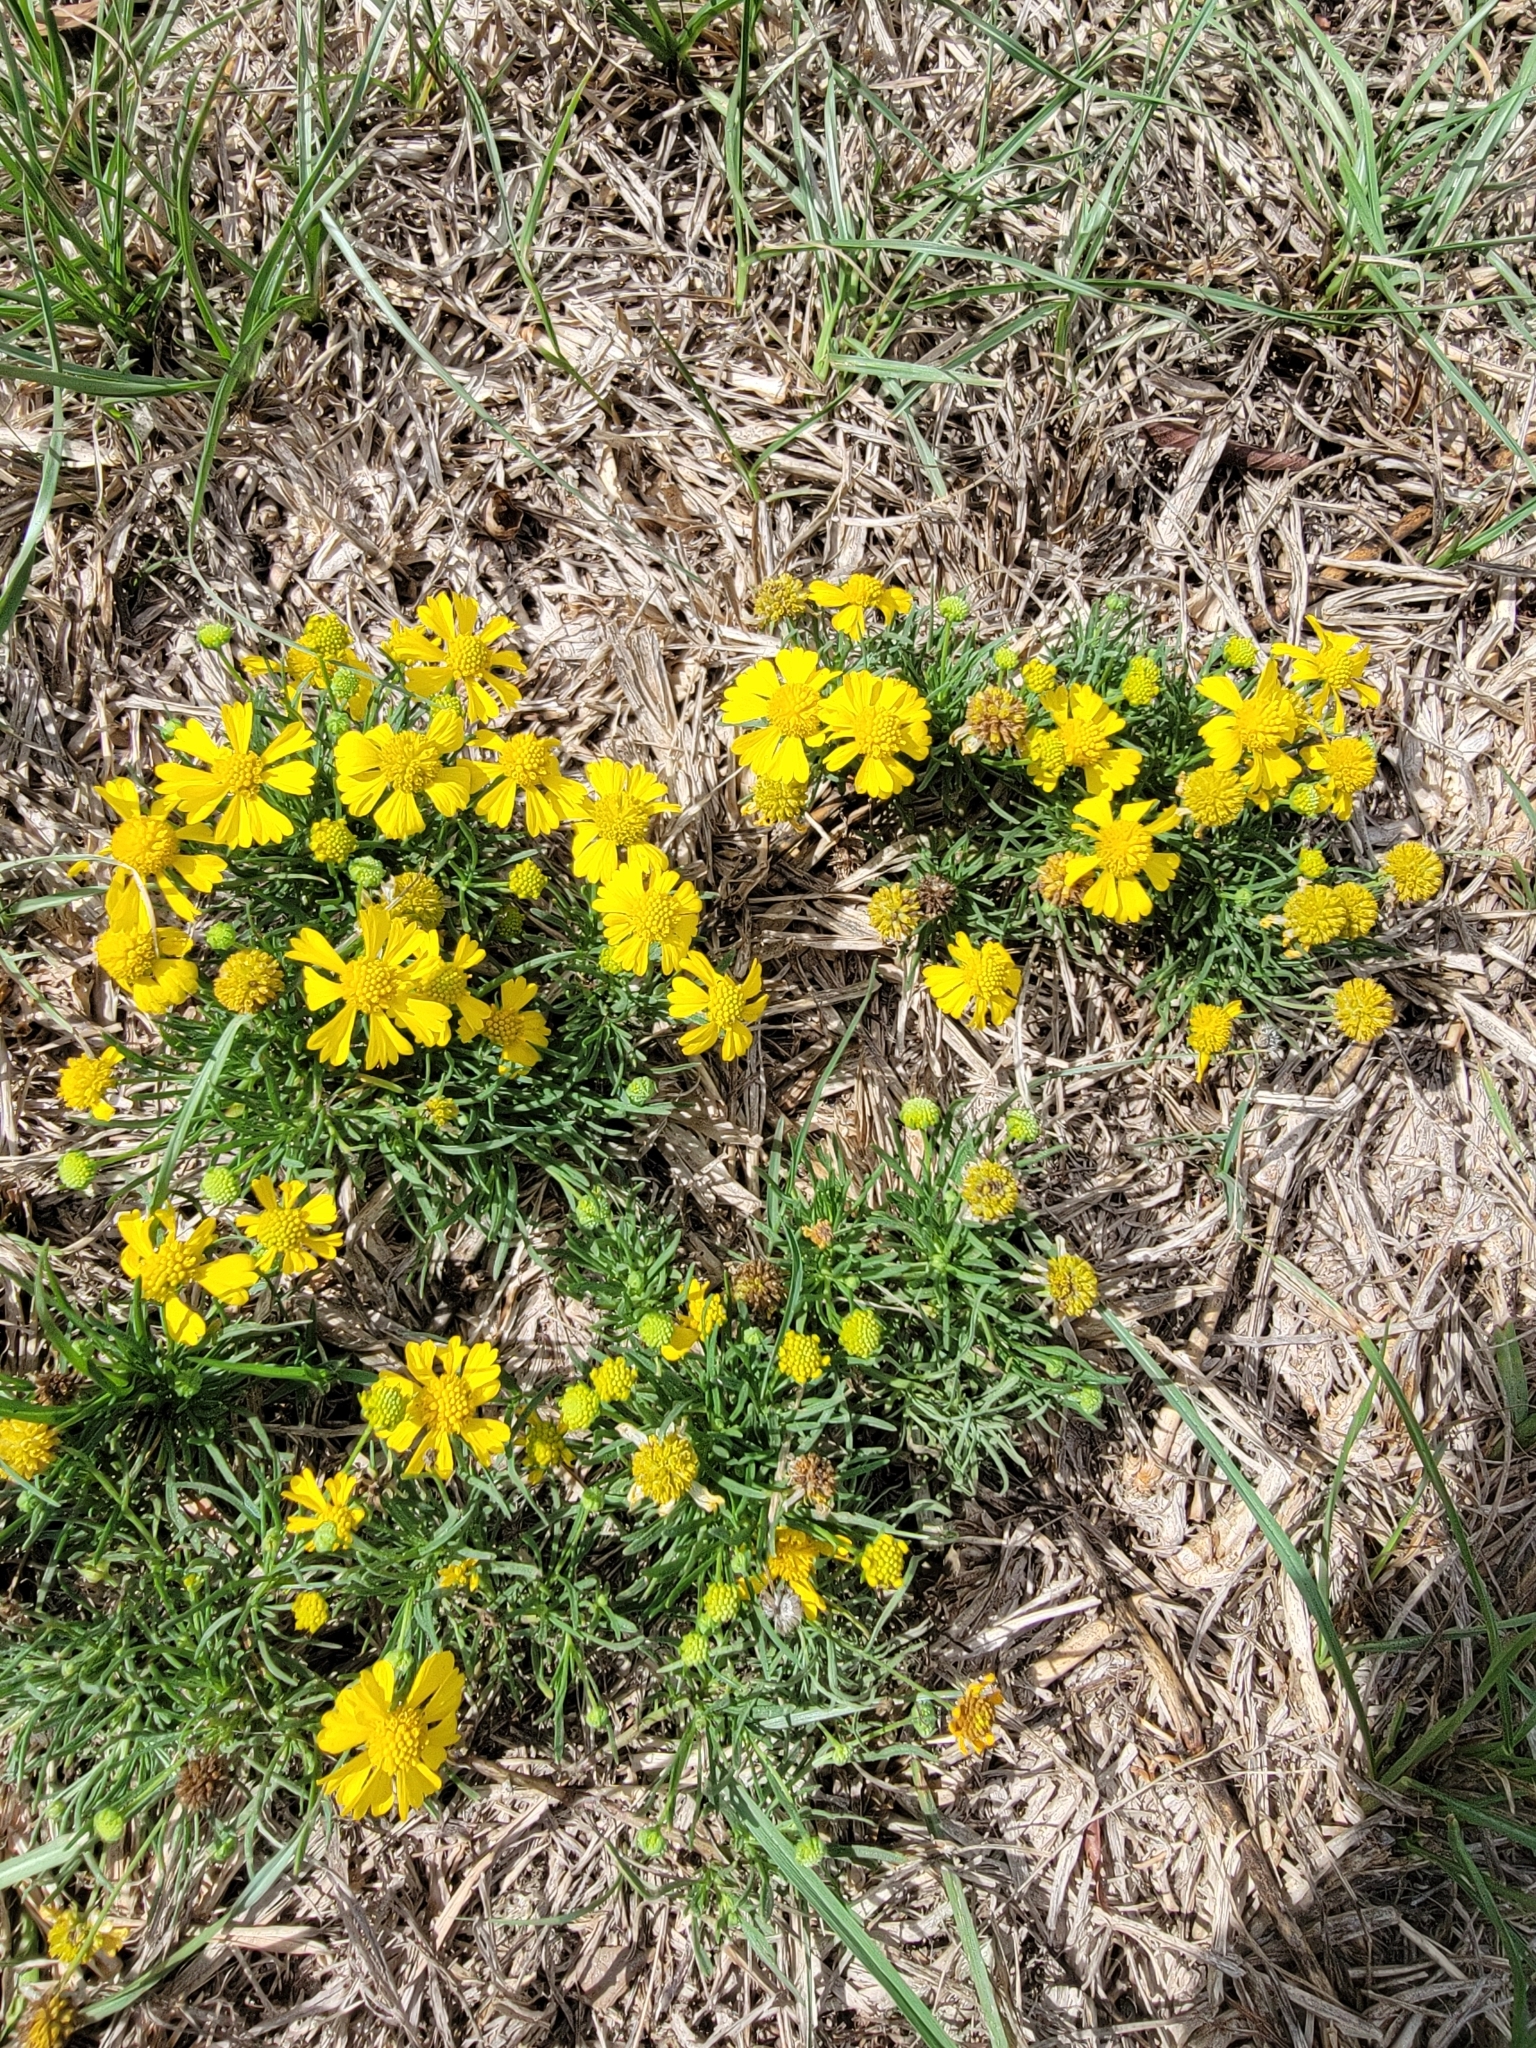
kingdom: Plantae
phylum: Tracheophyta
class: Magnoliopsida
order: Asterales
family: Asteraceae
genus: Helenium
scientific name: Helenium amarum
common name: Bitter sneezeweed
